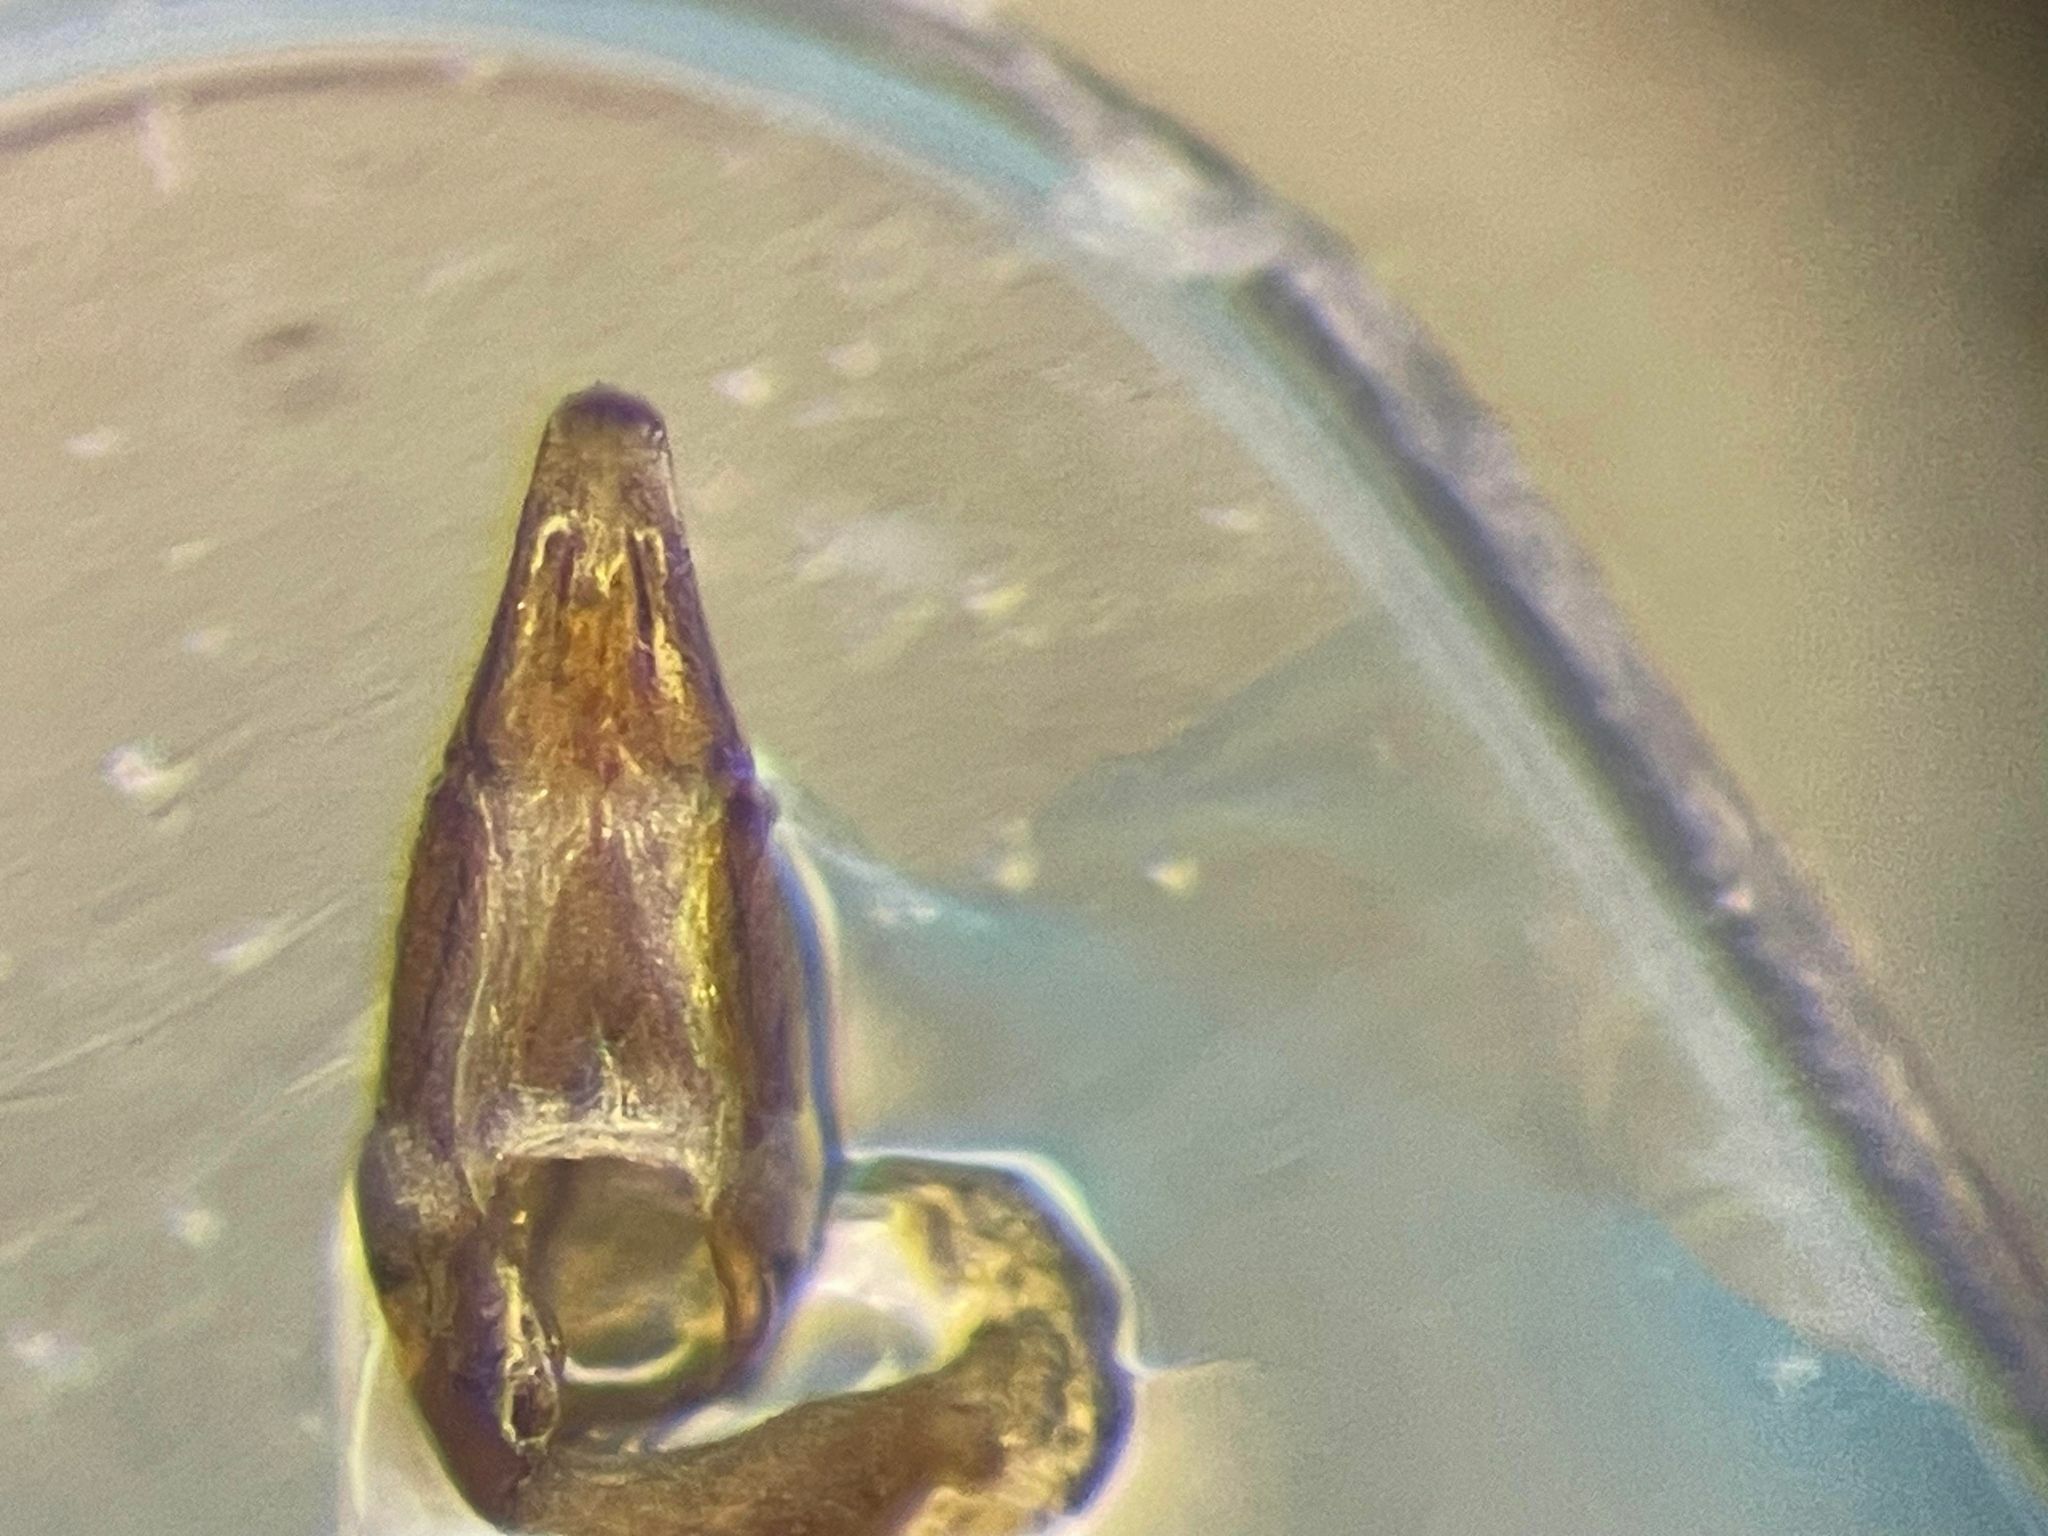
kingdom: Animalia
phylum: Arthropoda
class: Insecta
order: Coleoptera
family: Scarabaeidae
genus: Dialytes
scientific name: Dialytes striatulus
